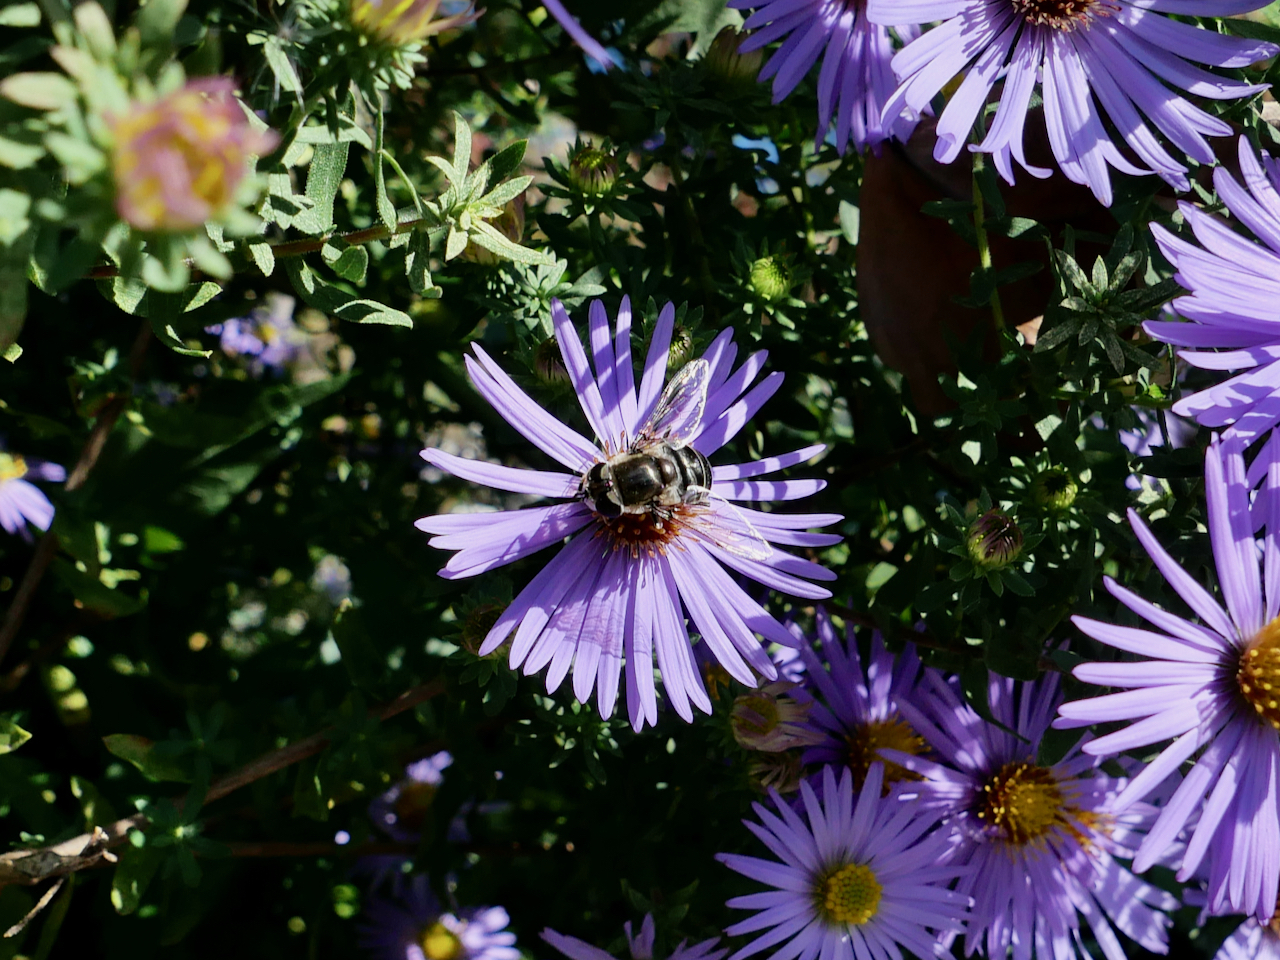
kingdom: Animalia
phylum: Arthropoda
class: Insecta
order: Diptera
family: Syrphidae
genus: Eristalis
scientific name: Eristalis dimidiata
